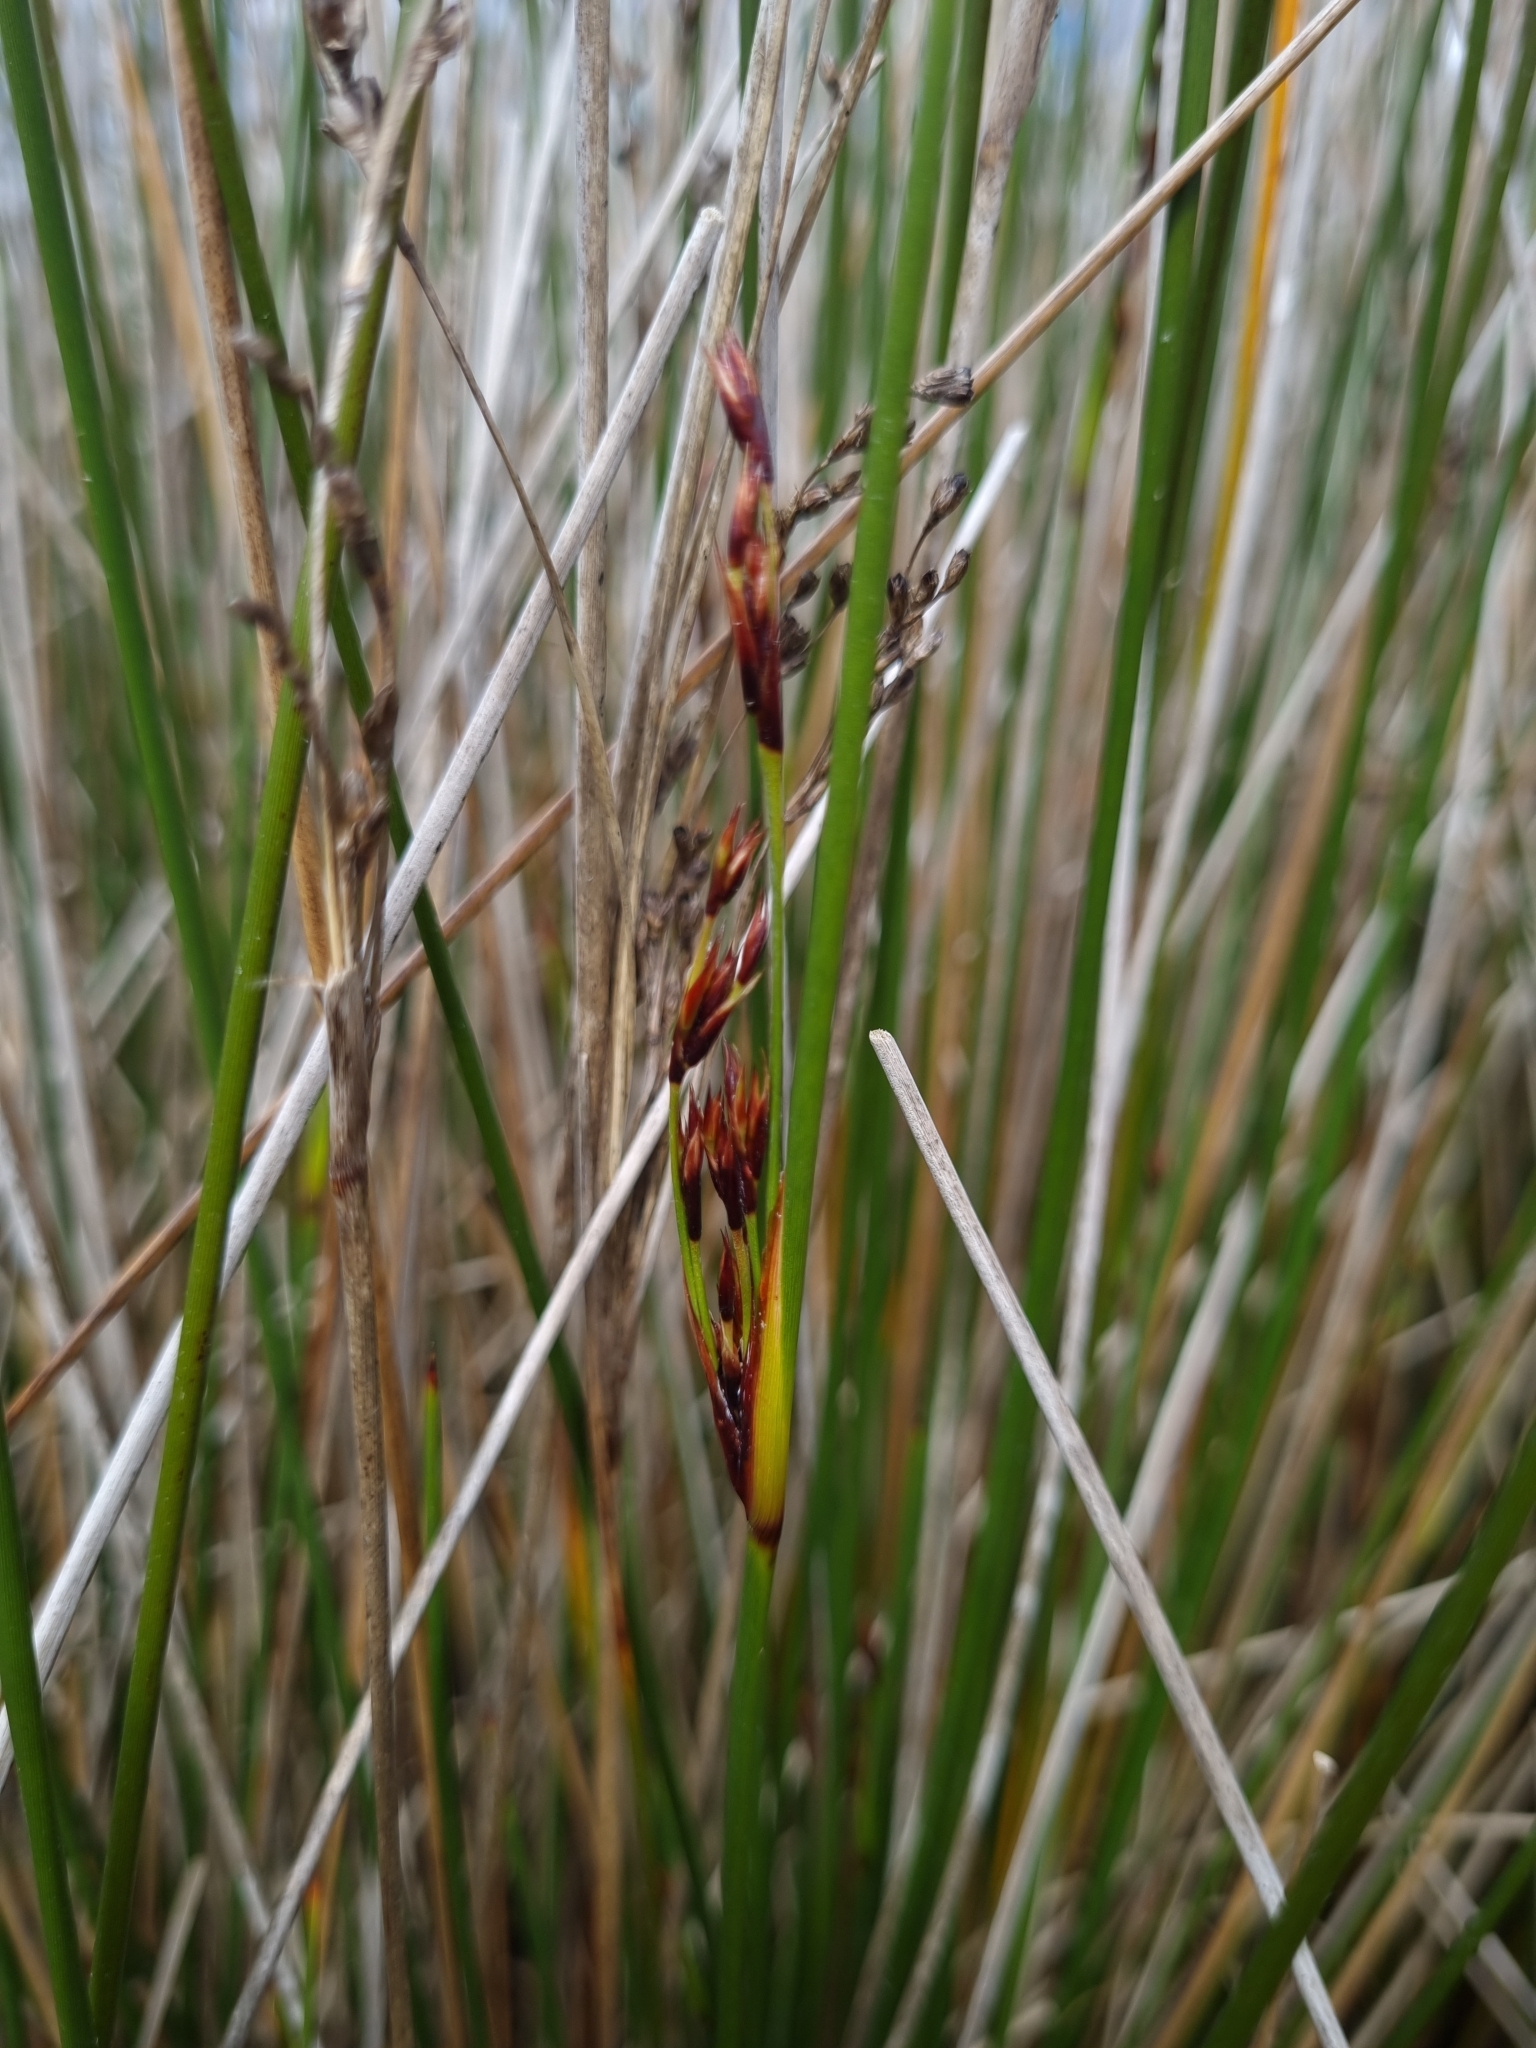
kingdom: Plantae
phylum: Tracheophyta
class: Liliopsida
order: Poales
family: Juncaceae
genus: Juncus
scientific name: Juncus kraussii
